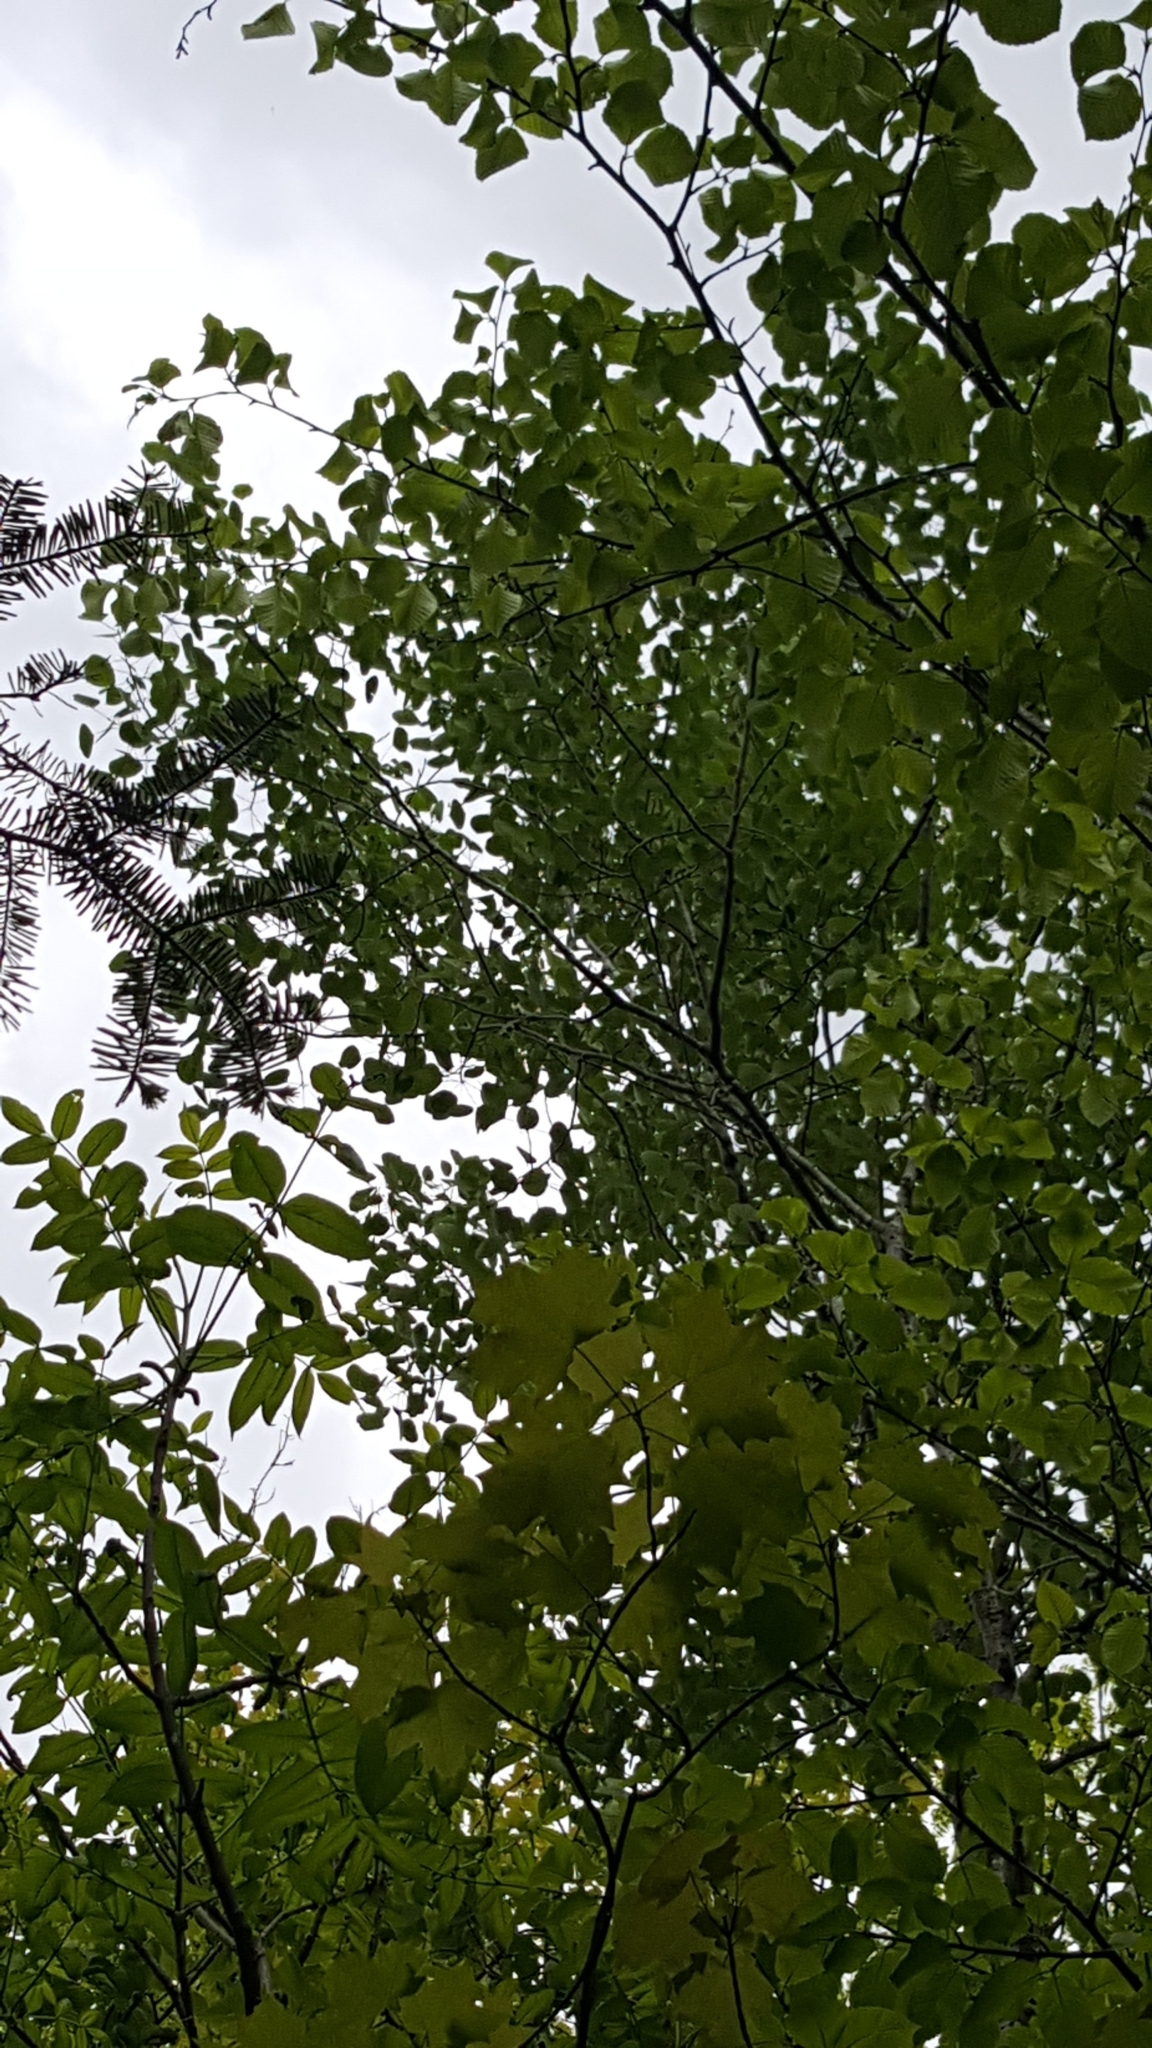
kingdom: Plantae
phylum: Tracheophyta
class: Magnoliopsida
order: Malpighiales
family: Salicaceae
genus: Populus
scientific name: Populus tremuloides
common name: Quaking aspen
